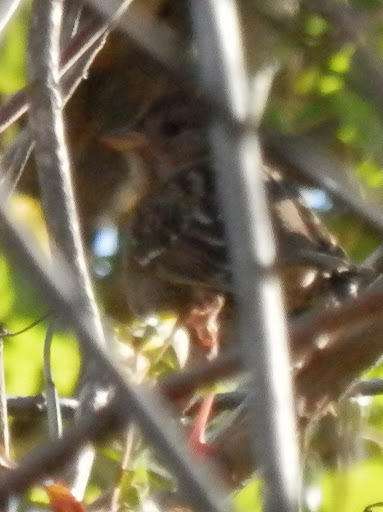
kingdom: Animalia
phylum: Chordata
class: Aves
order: Passeriformes
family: Passerellidae
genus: Zonotrichia
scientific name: Zonotrichia leucophrys
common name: White-crowned sparrow
